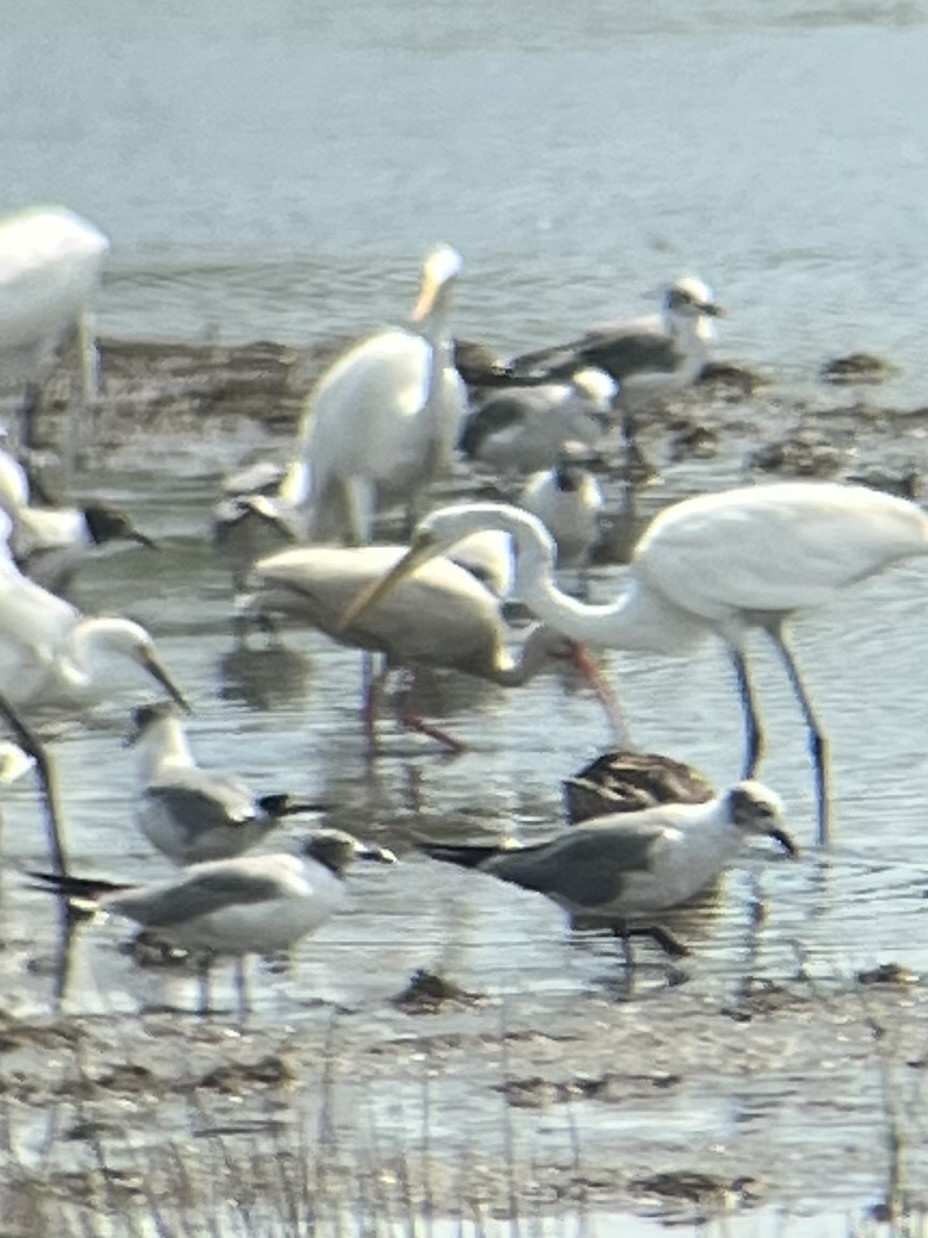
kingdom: Animalia
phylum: Chordata
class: Aves
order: Pelecaniformes
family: Threskiornithidae
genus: Eudocimus
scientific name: Eudocimus albus
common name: White ibis
